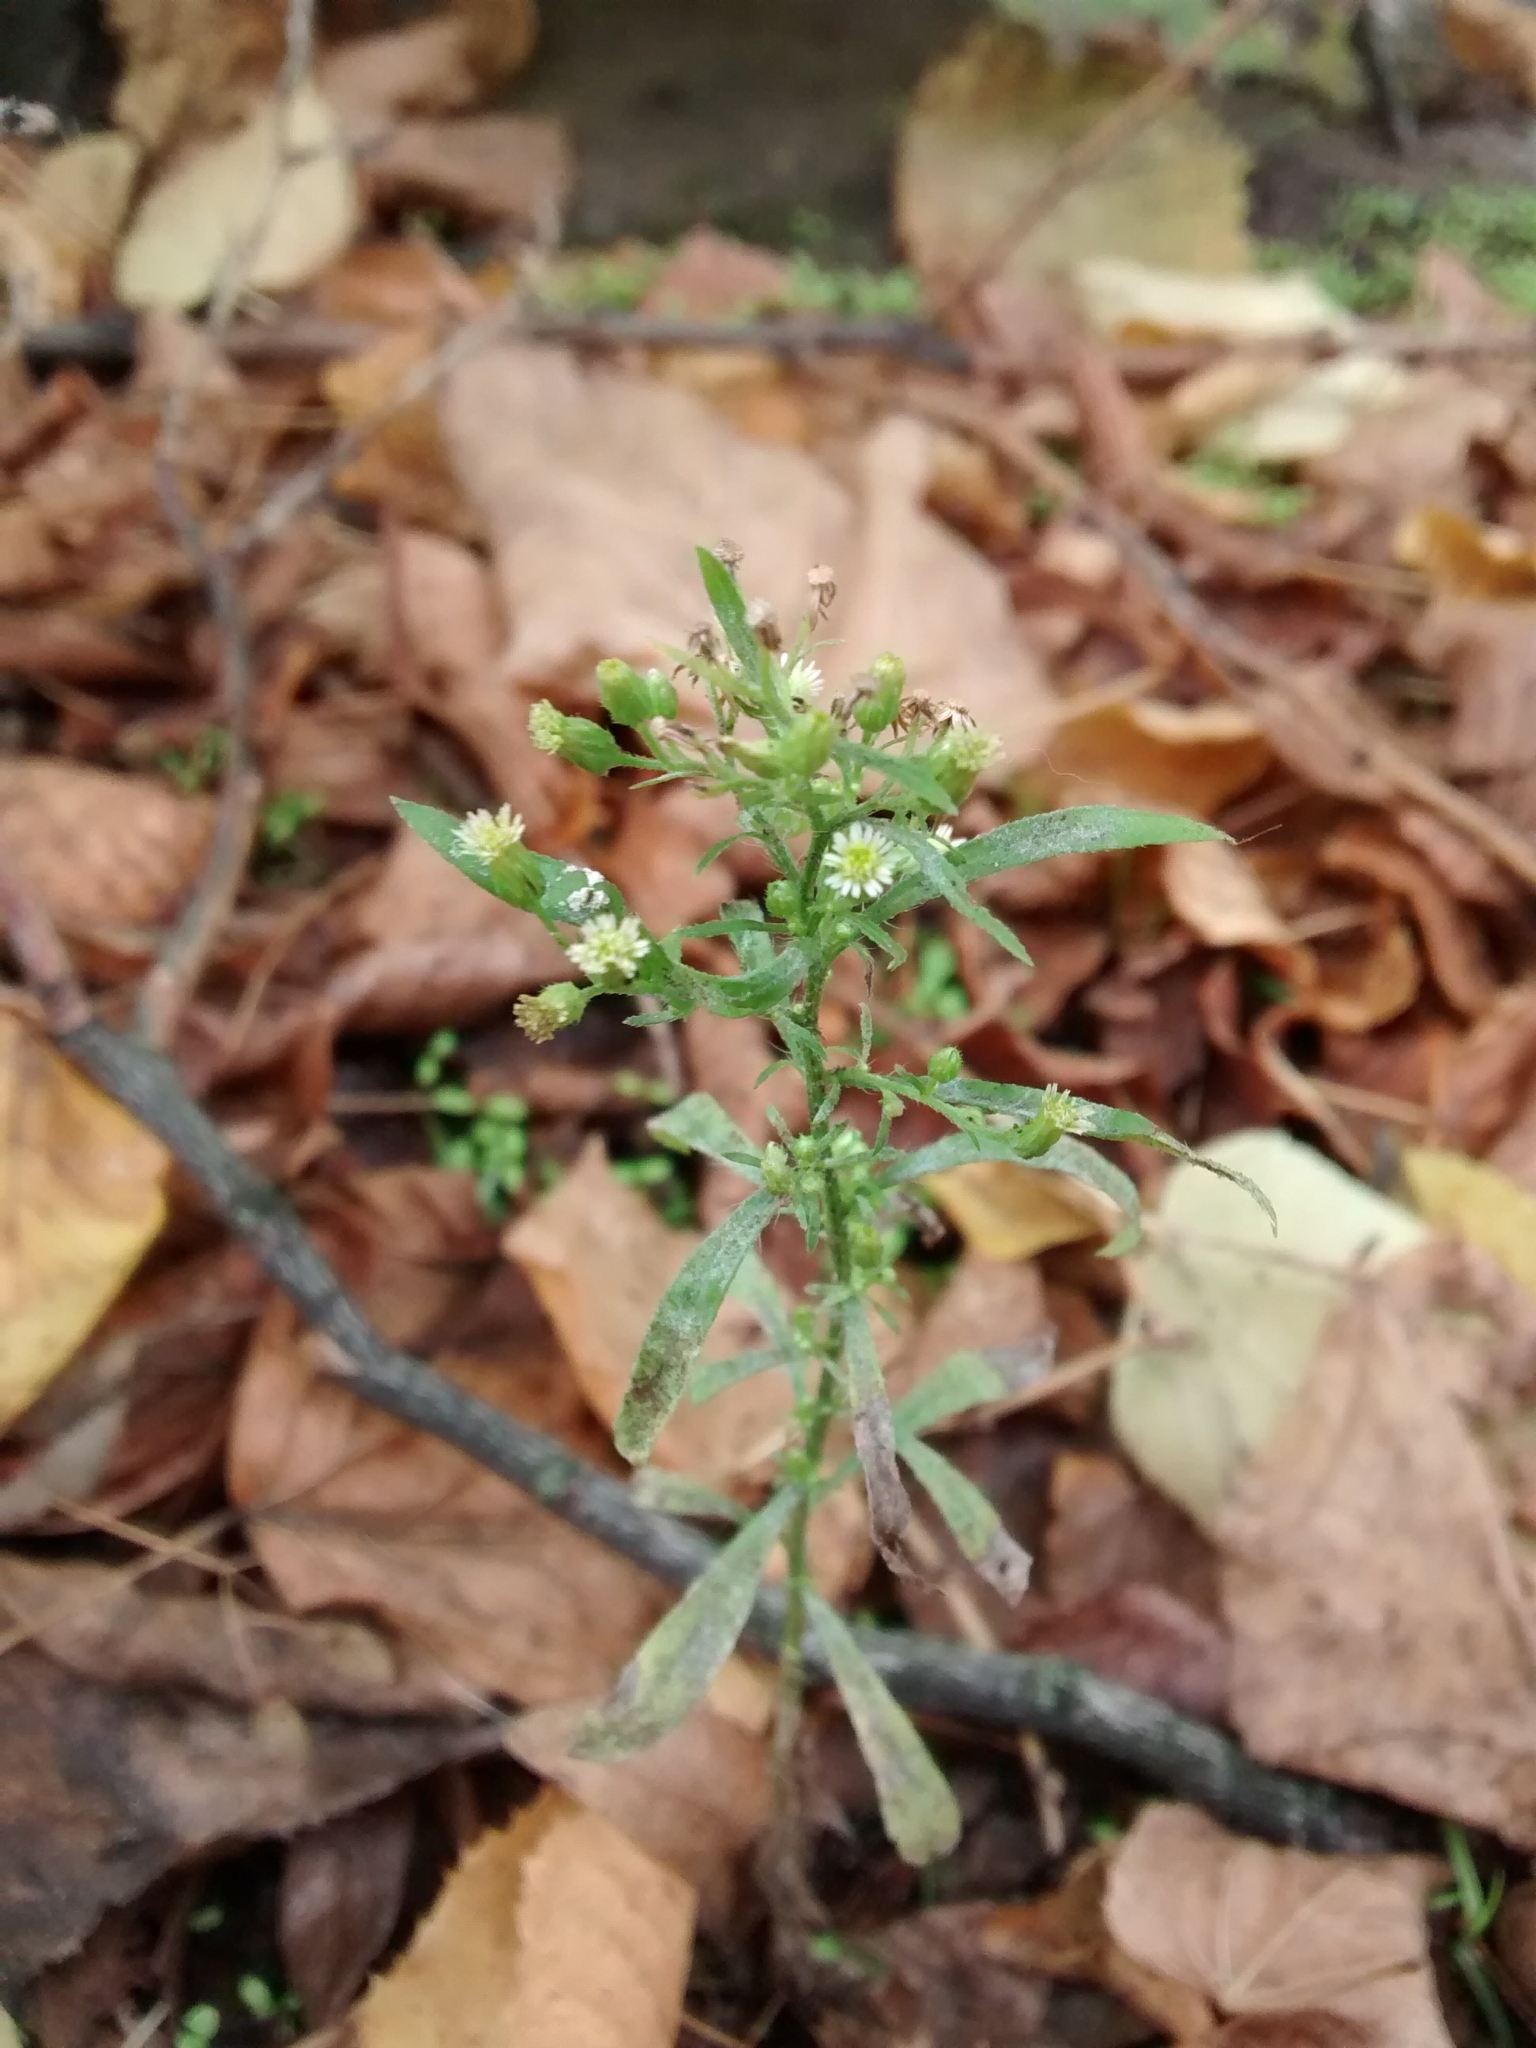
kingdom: Plantae
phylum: Tracheophyta
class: Magnoliopsida
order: Asterales
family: Asteraceae
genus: Erigeron
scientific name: Erigeron canadensis
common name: Canadian fleabane
